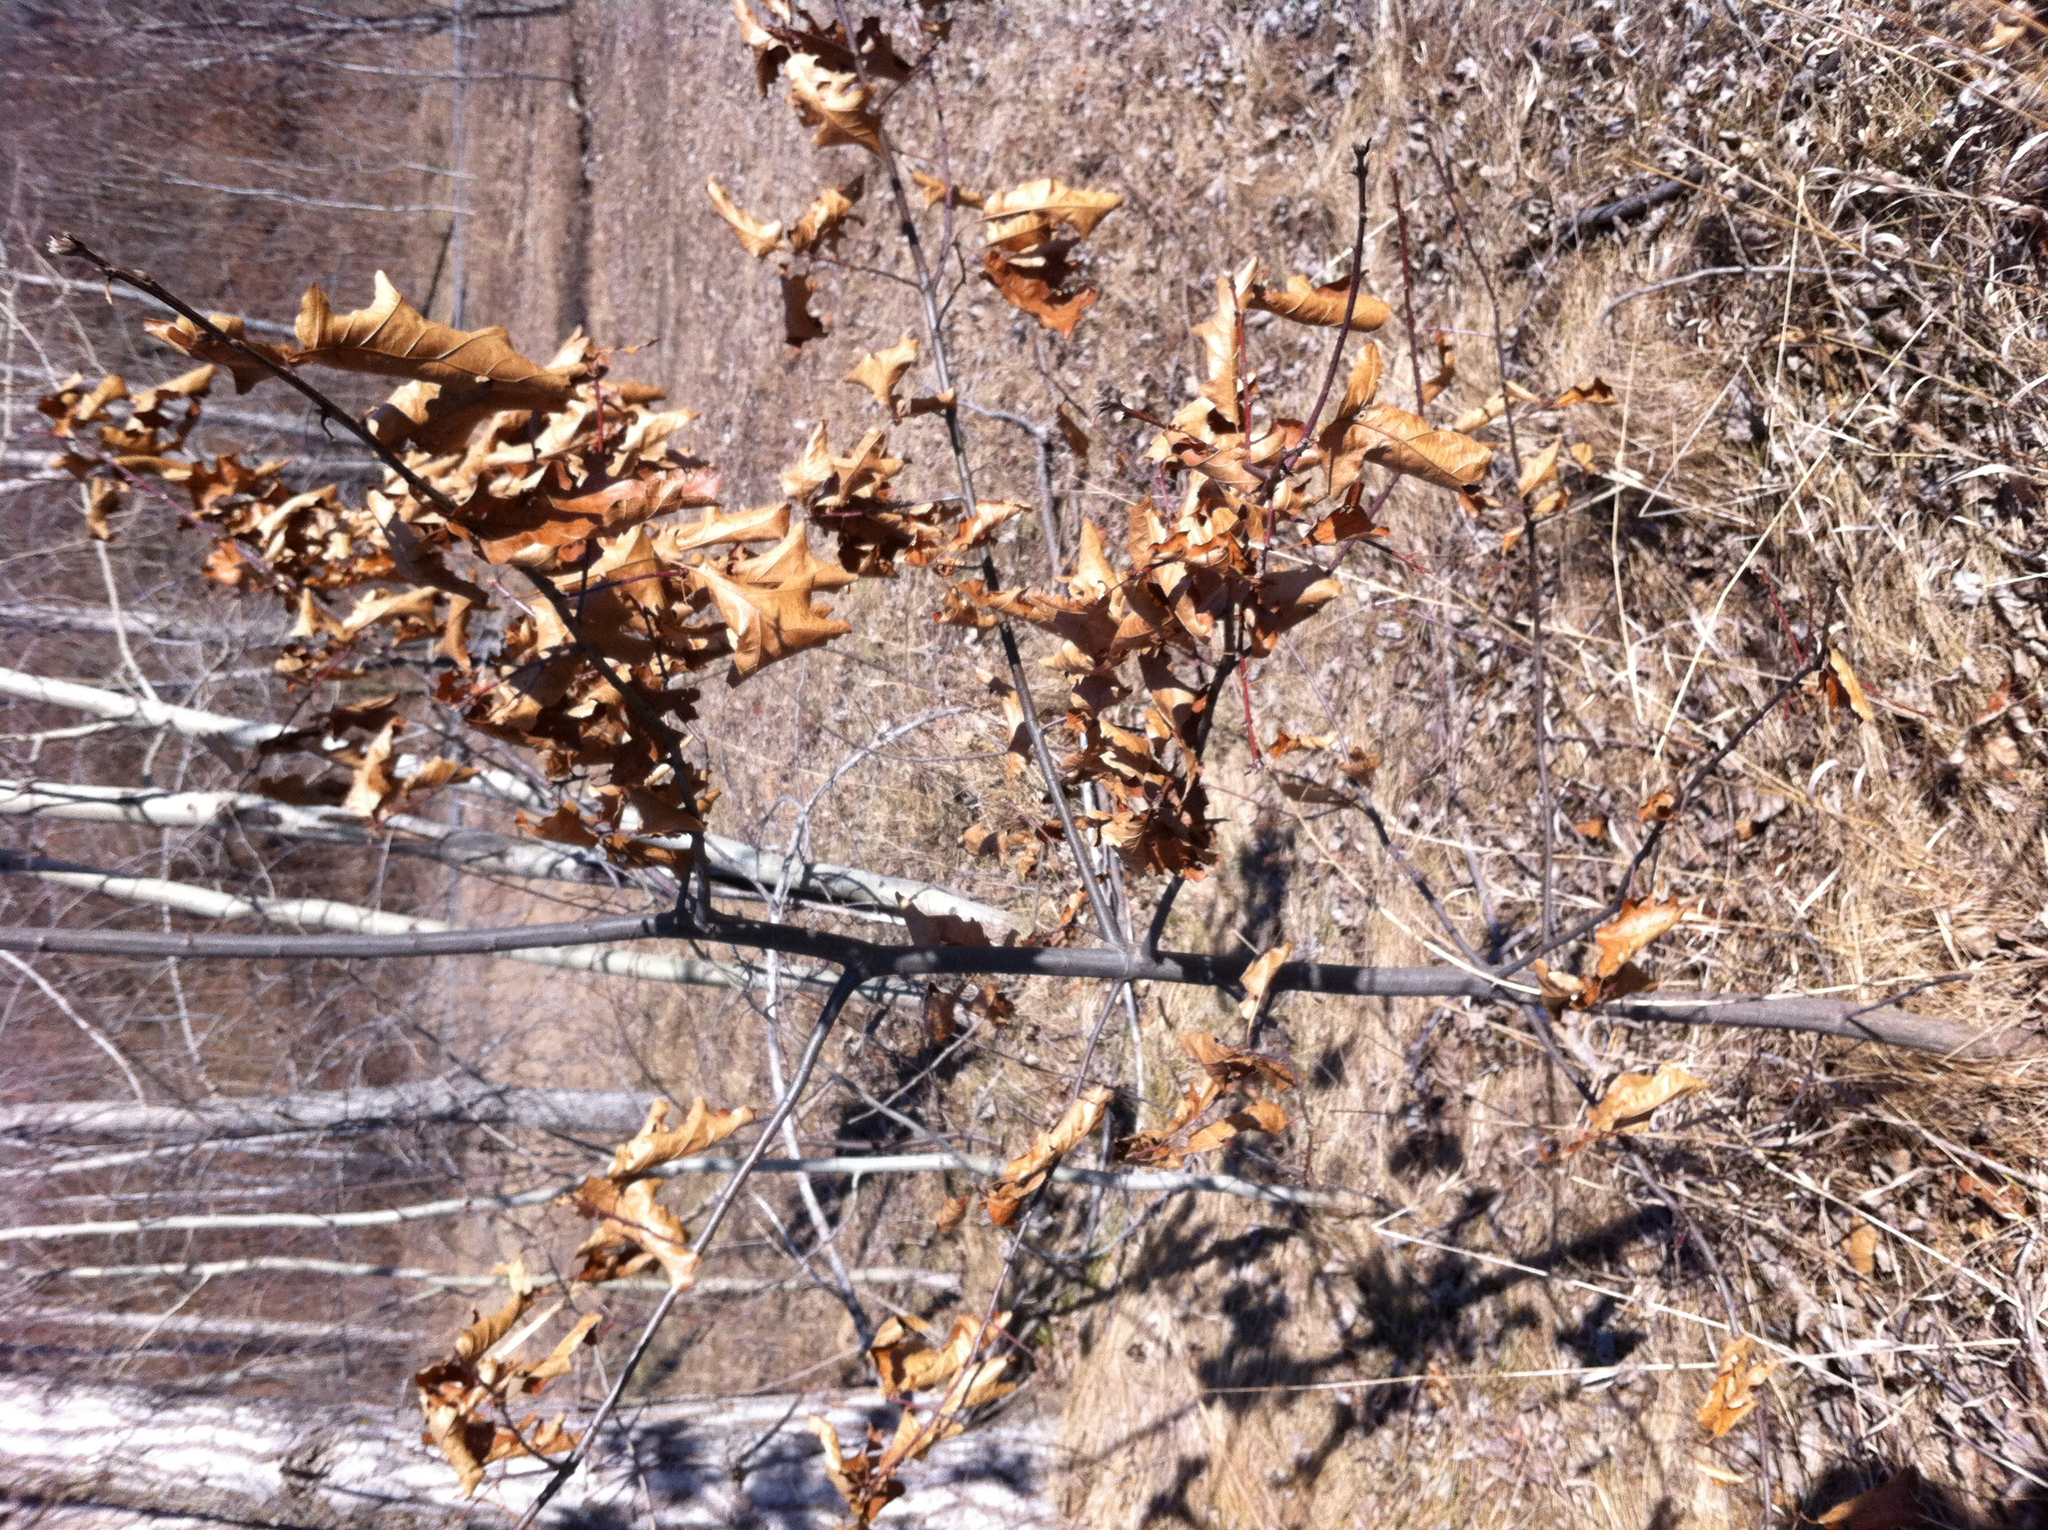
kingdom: Plantae
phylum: Tracheophyta
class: Magnoliopsida
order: Fagales
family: Fagaceae
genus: Quercus
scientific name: Quercus rubra
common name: Red oak
